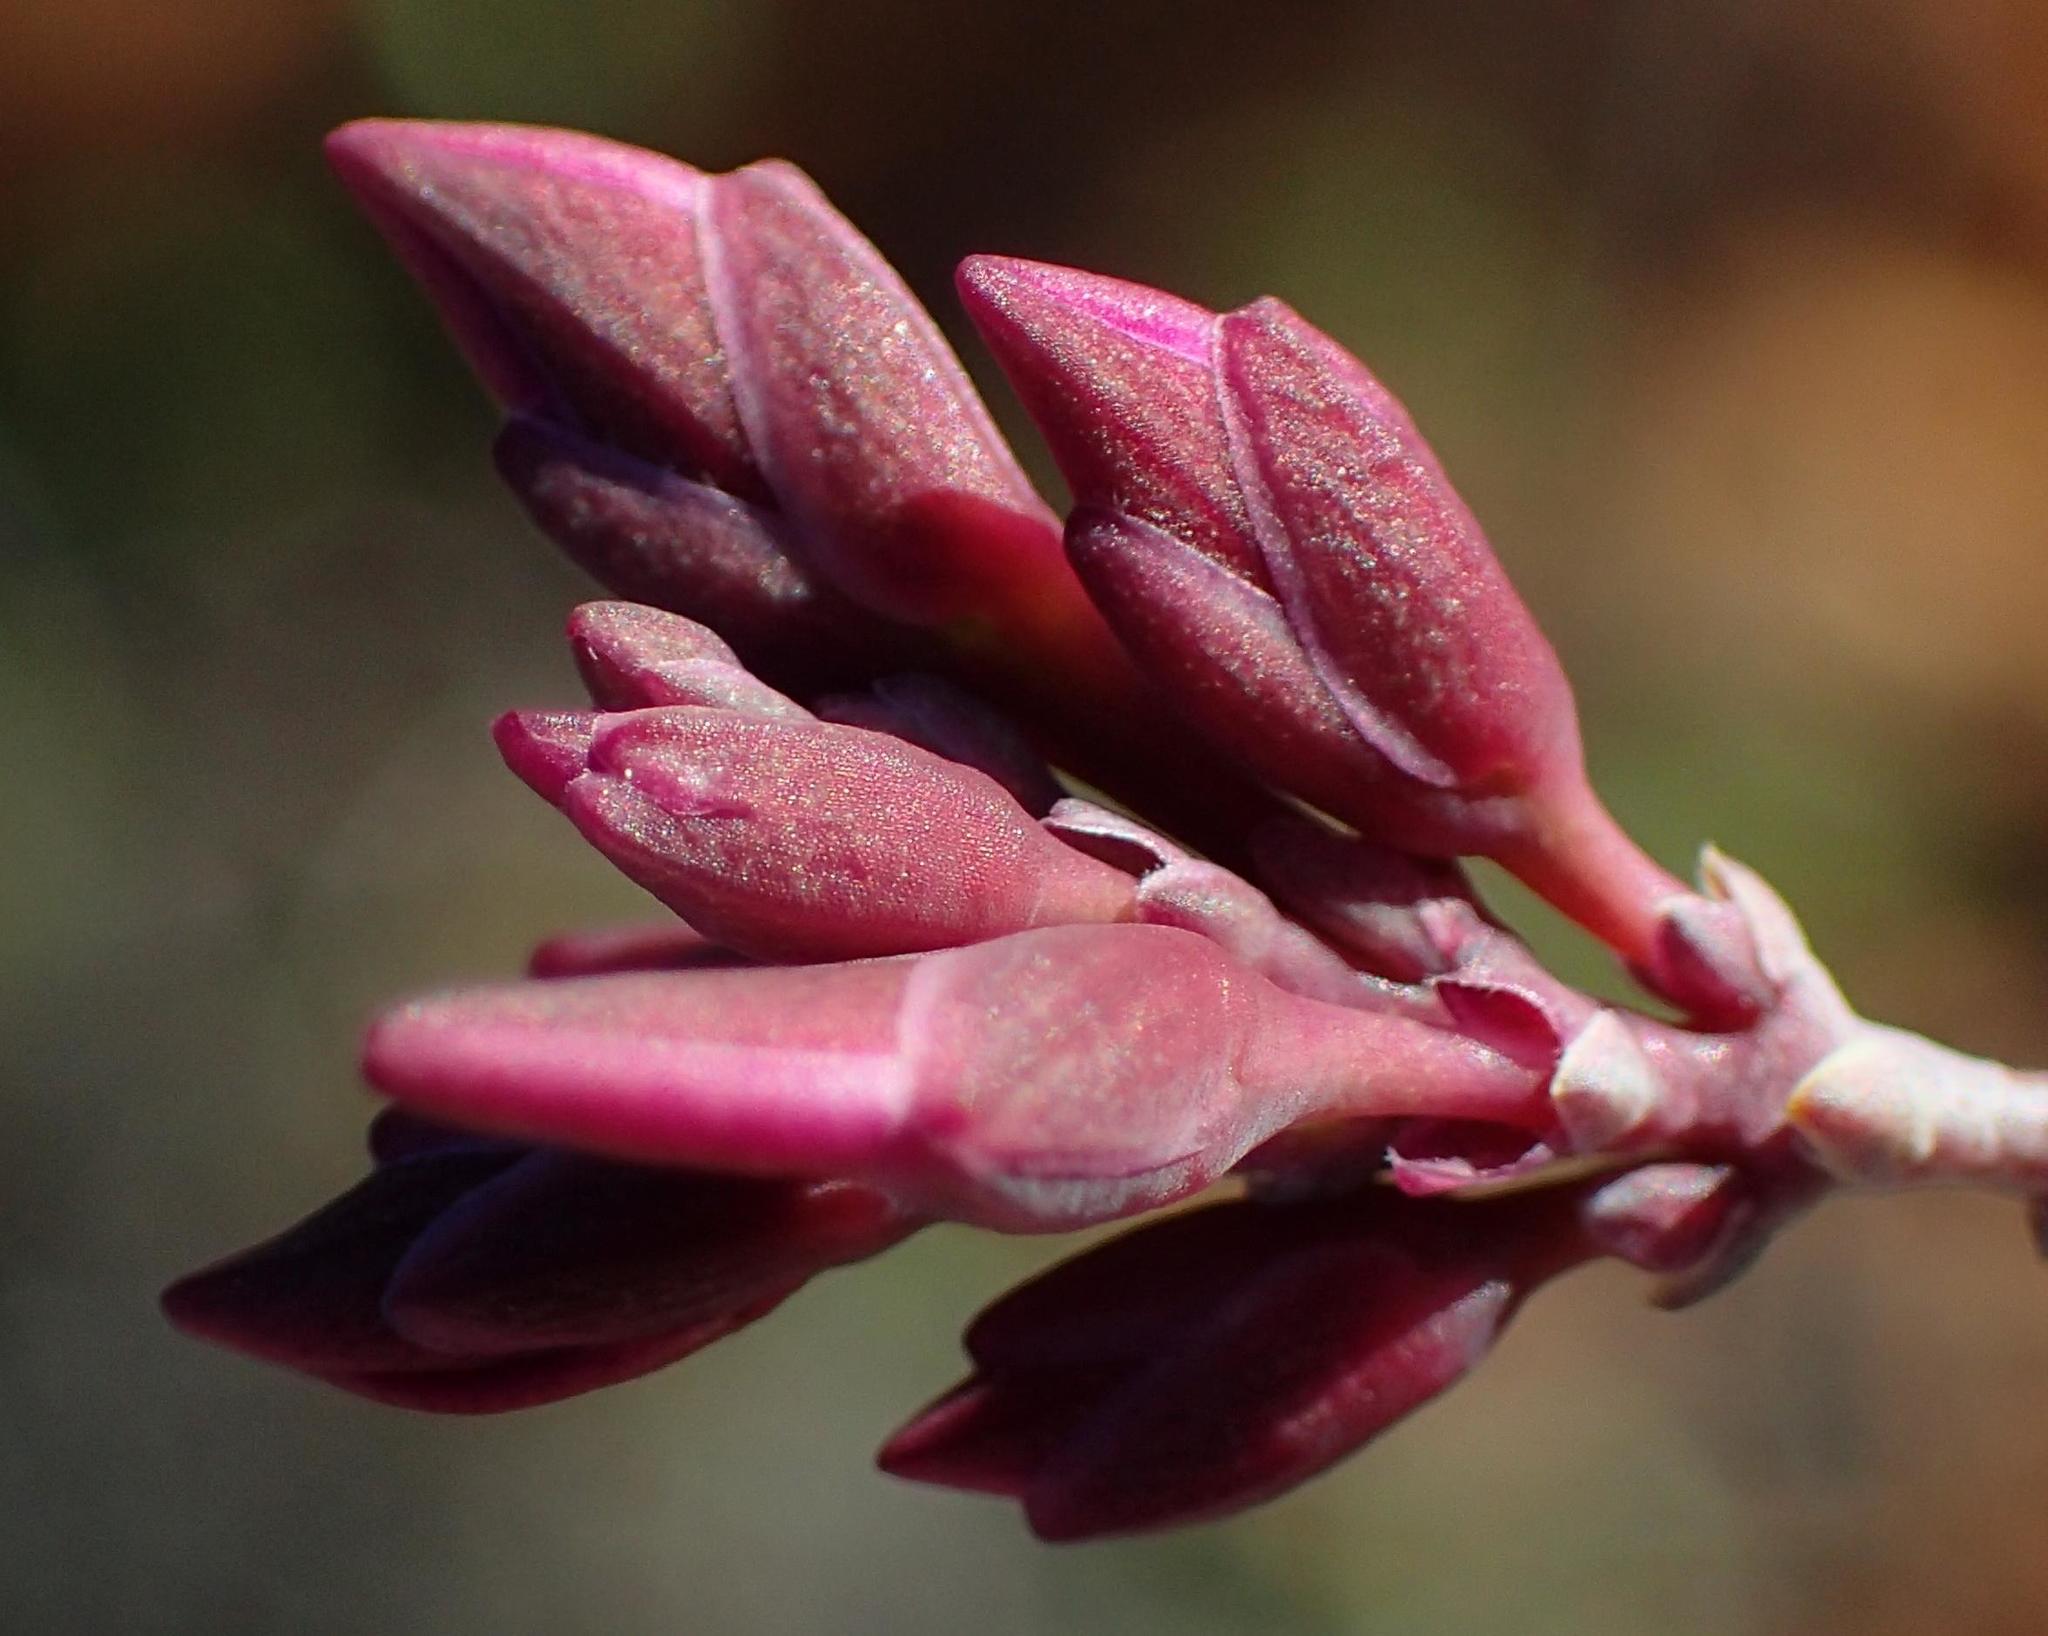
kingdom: Plantae
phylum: Tracheophyta
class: Magnoliopsida
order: Fabales
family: Polygalaceae
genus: Polygala
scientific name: Polygala fruticosa
